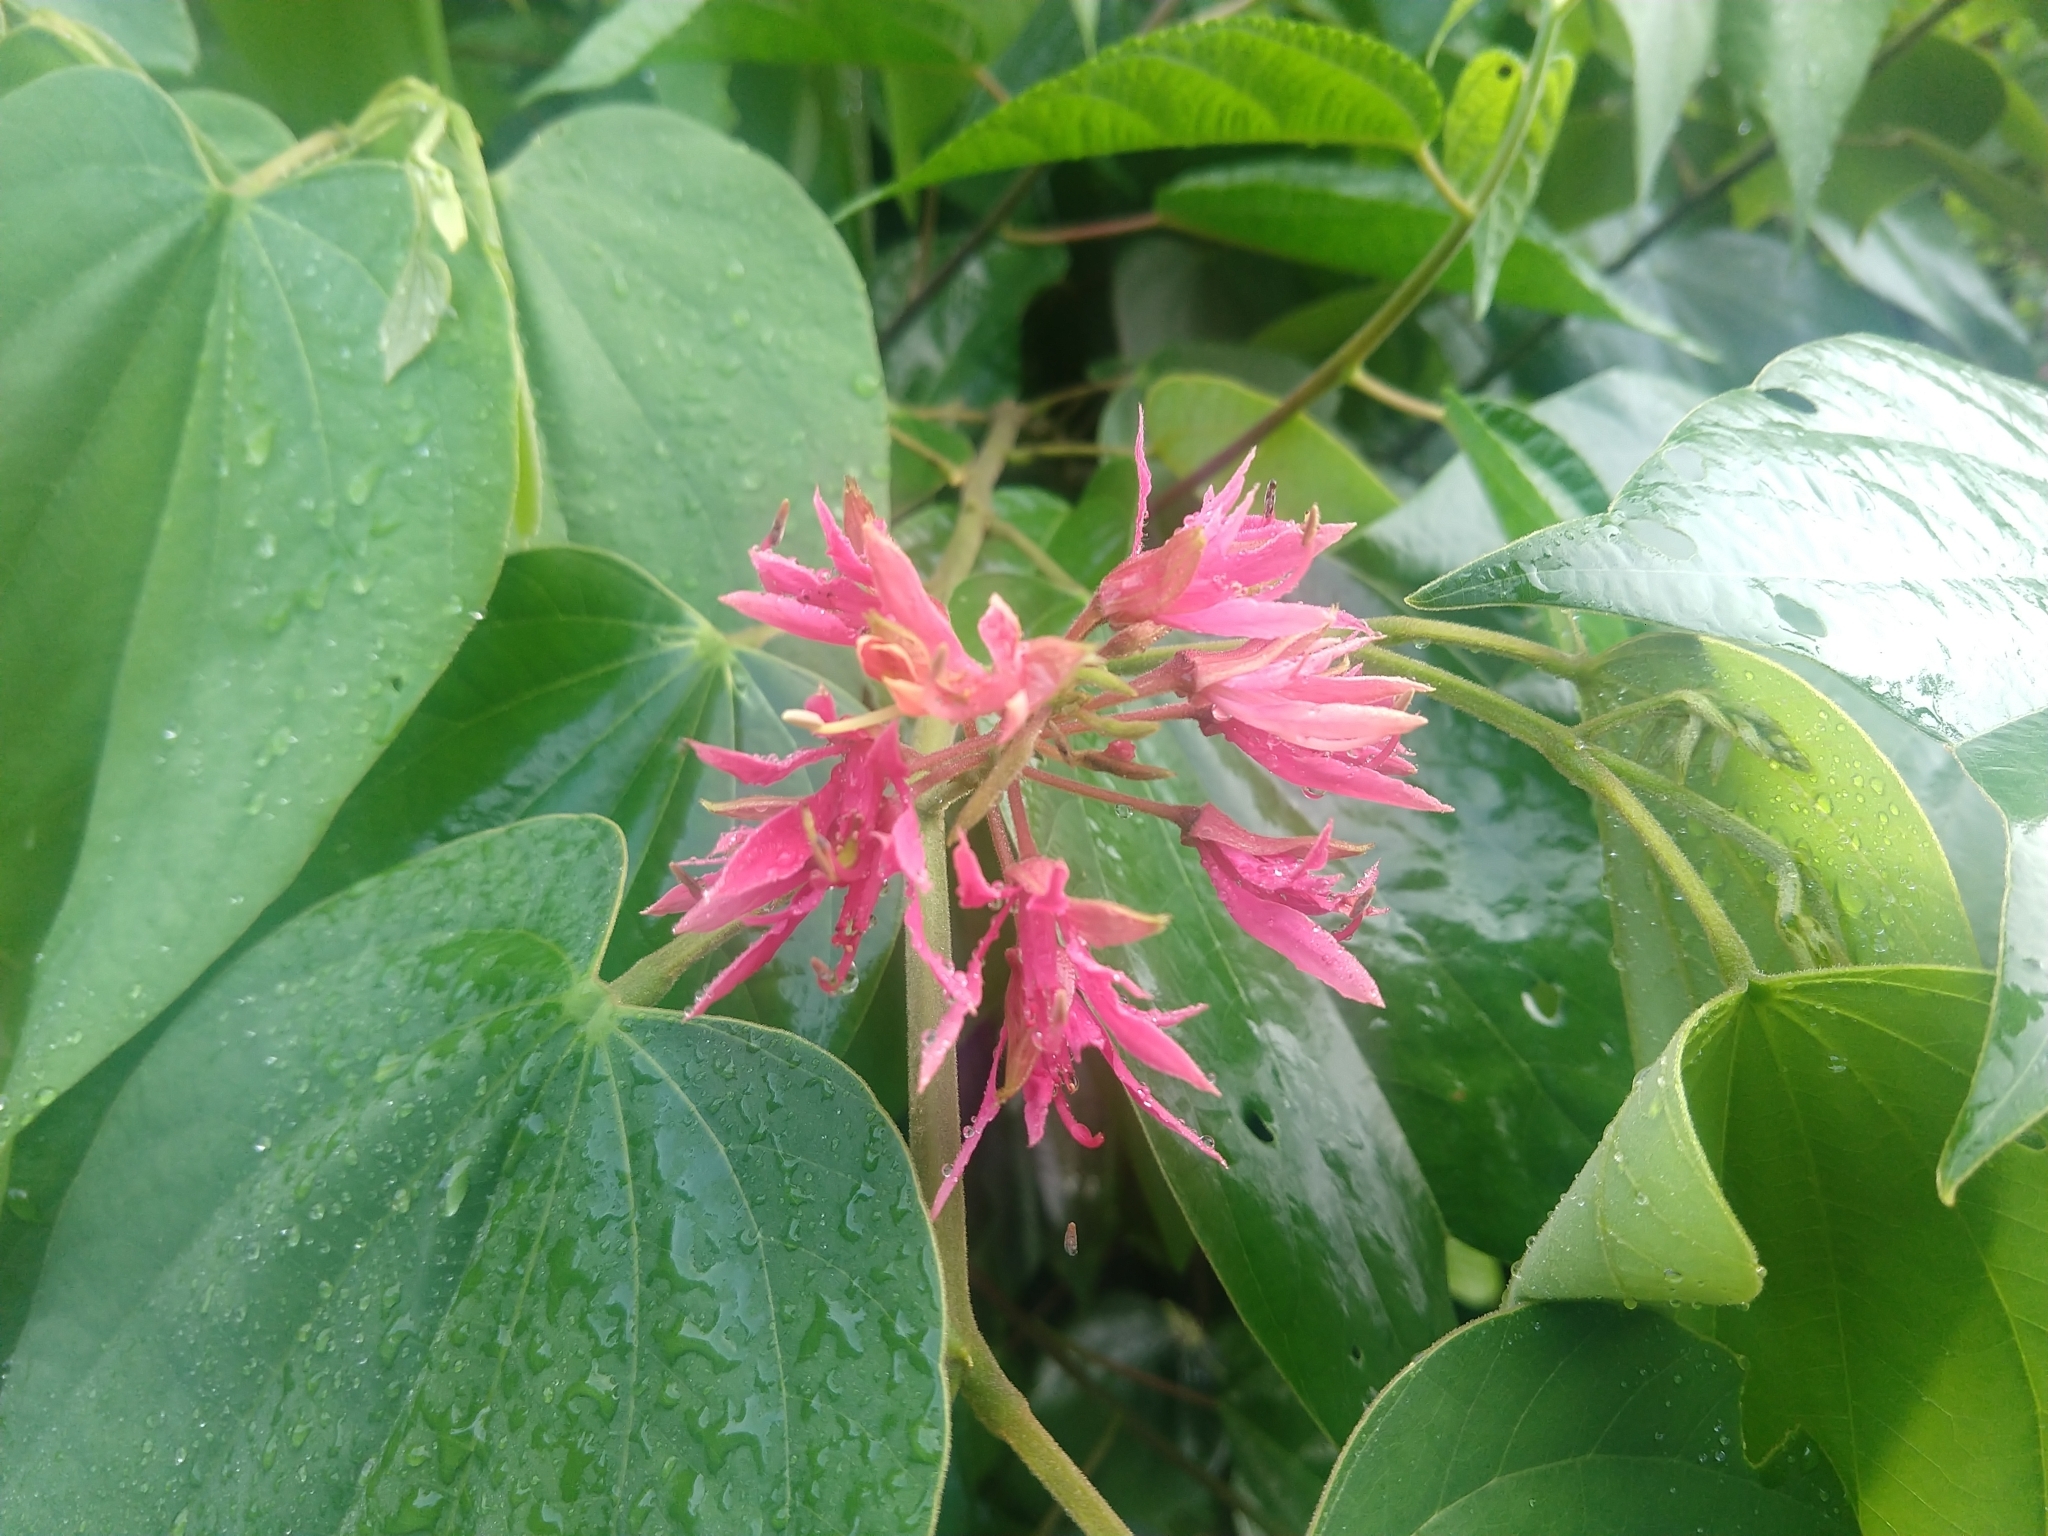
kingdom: Plantae
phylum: Tracheophyta
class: Magnoliopsida
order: Fabales
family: Fabaceae
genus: Bauhinia
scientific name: Bauhinia rubeleruziana
